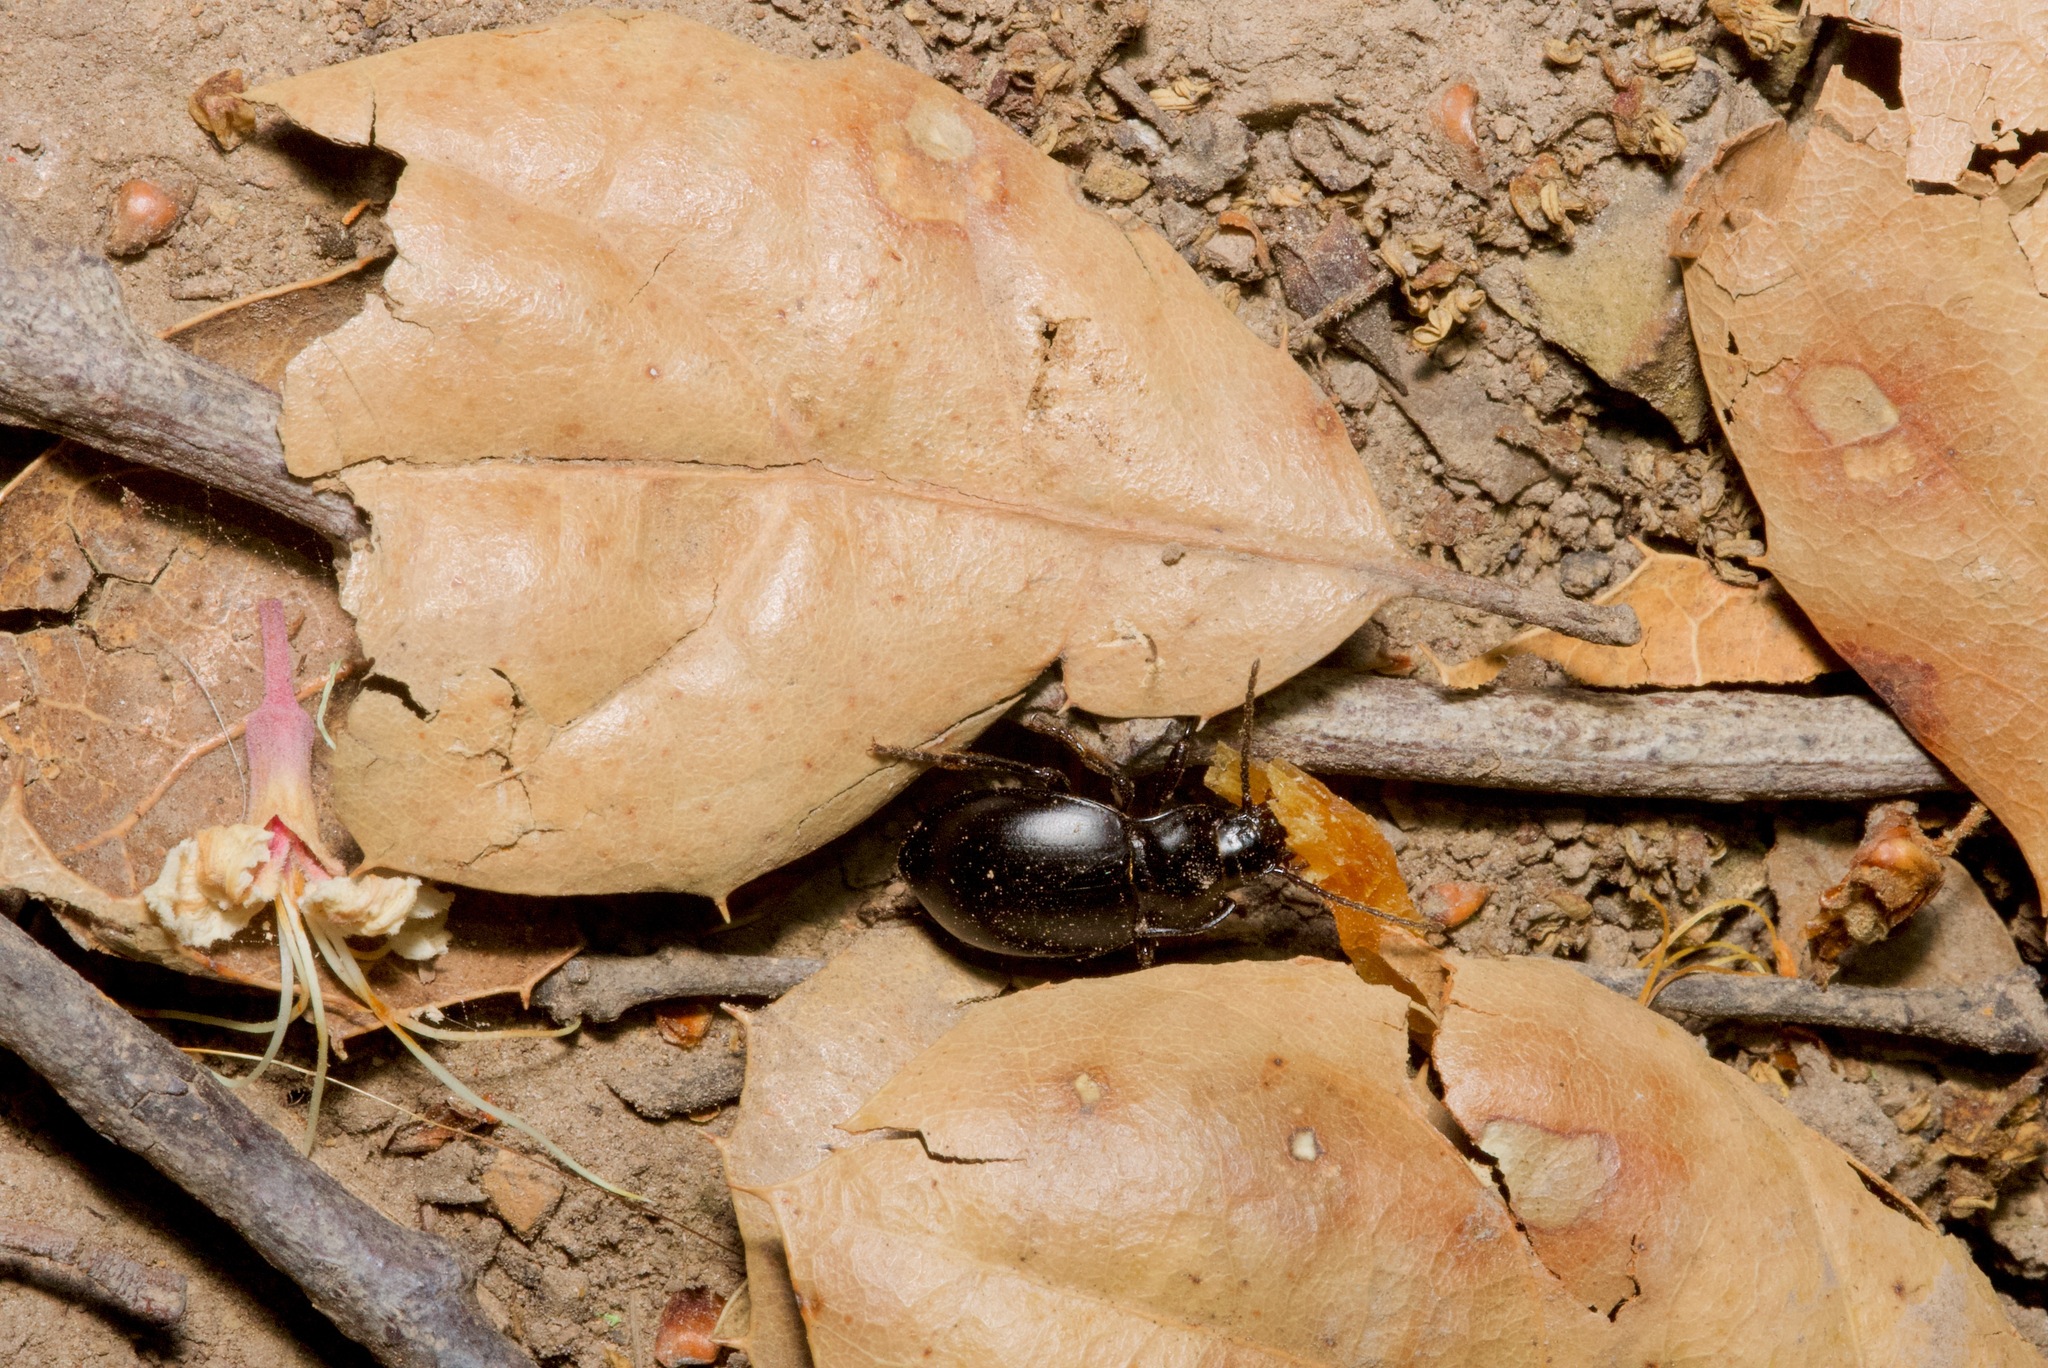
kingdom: Animalia
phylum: Arthropoda
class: Insecta
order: Coleoptera
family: Carabidae
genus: Metrius
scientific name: Metrius contractus
